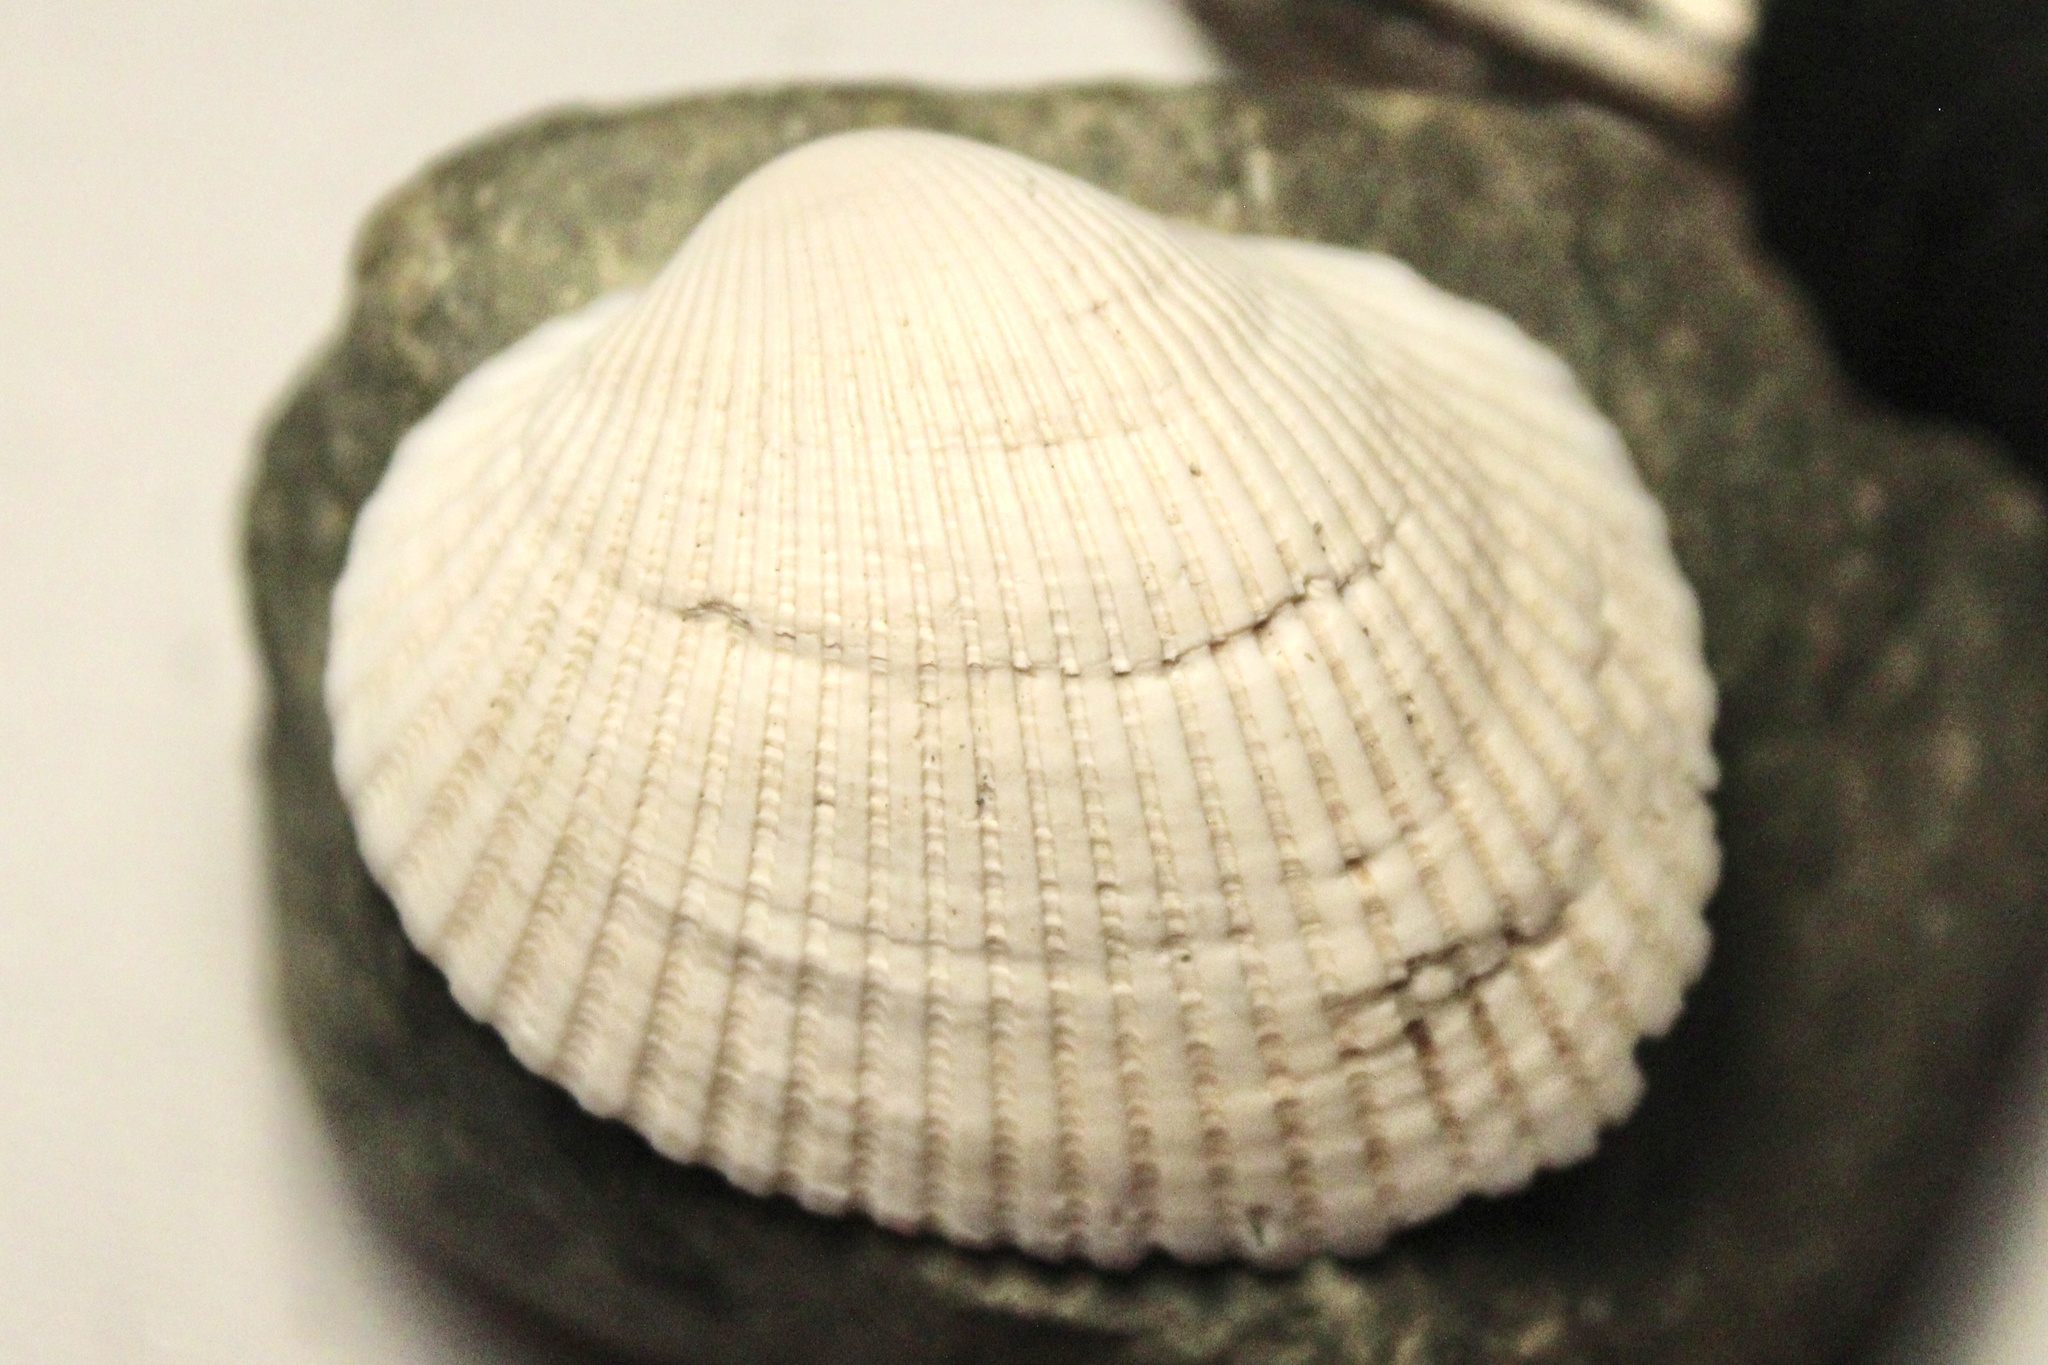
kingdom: Animalia
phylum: Mollusca
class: Bivalvia
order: Arcida
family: Arcidae
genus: Lunarca
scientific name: Lunarca ovalis
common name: Blood ark
